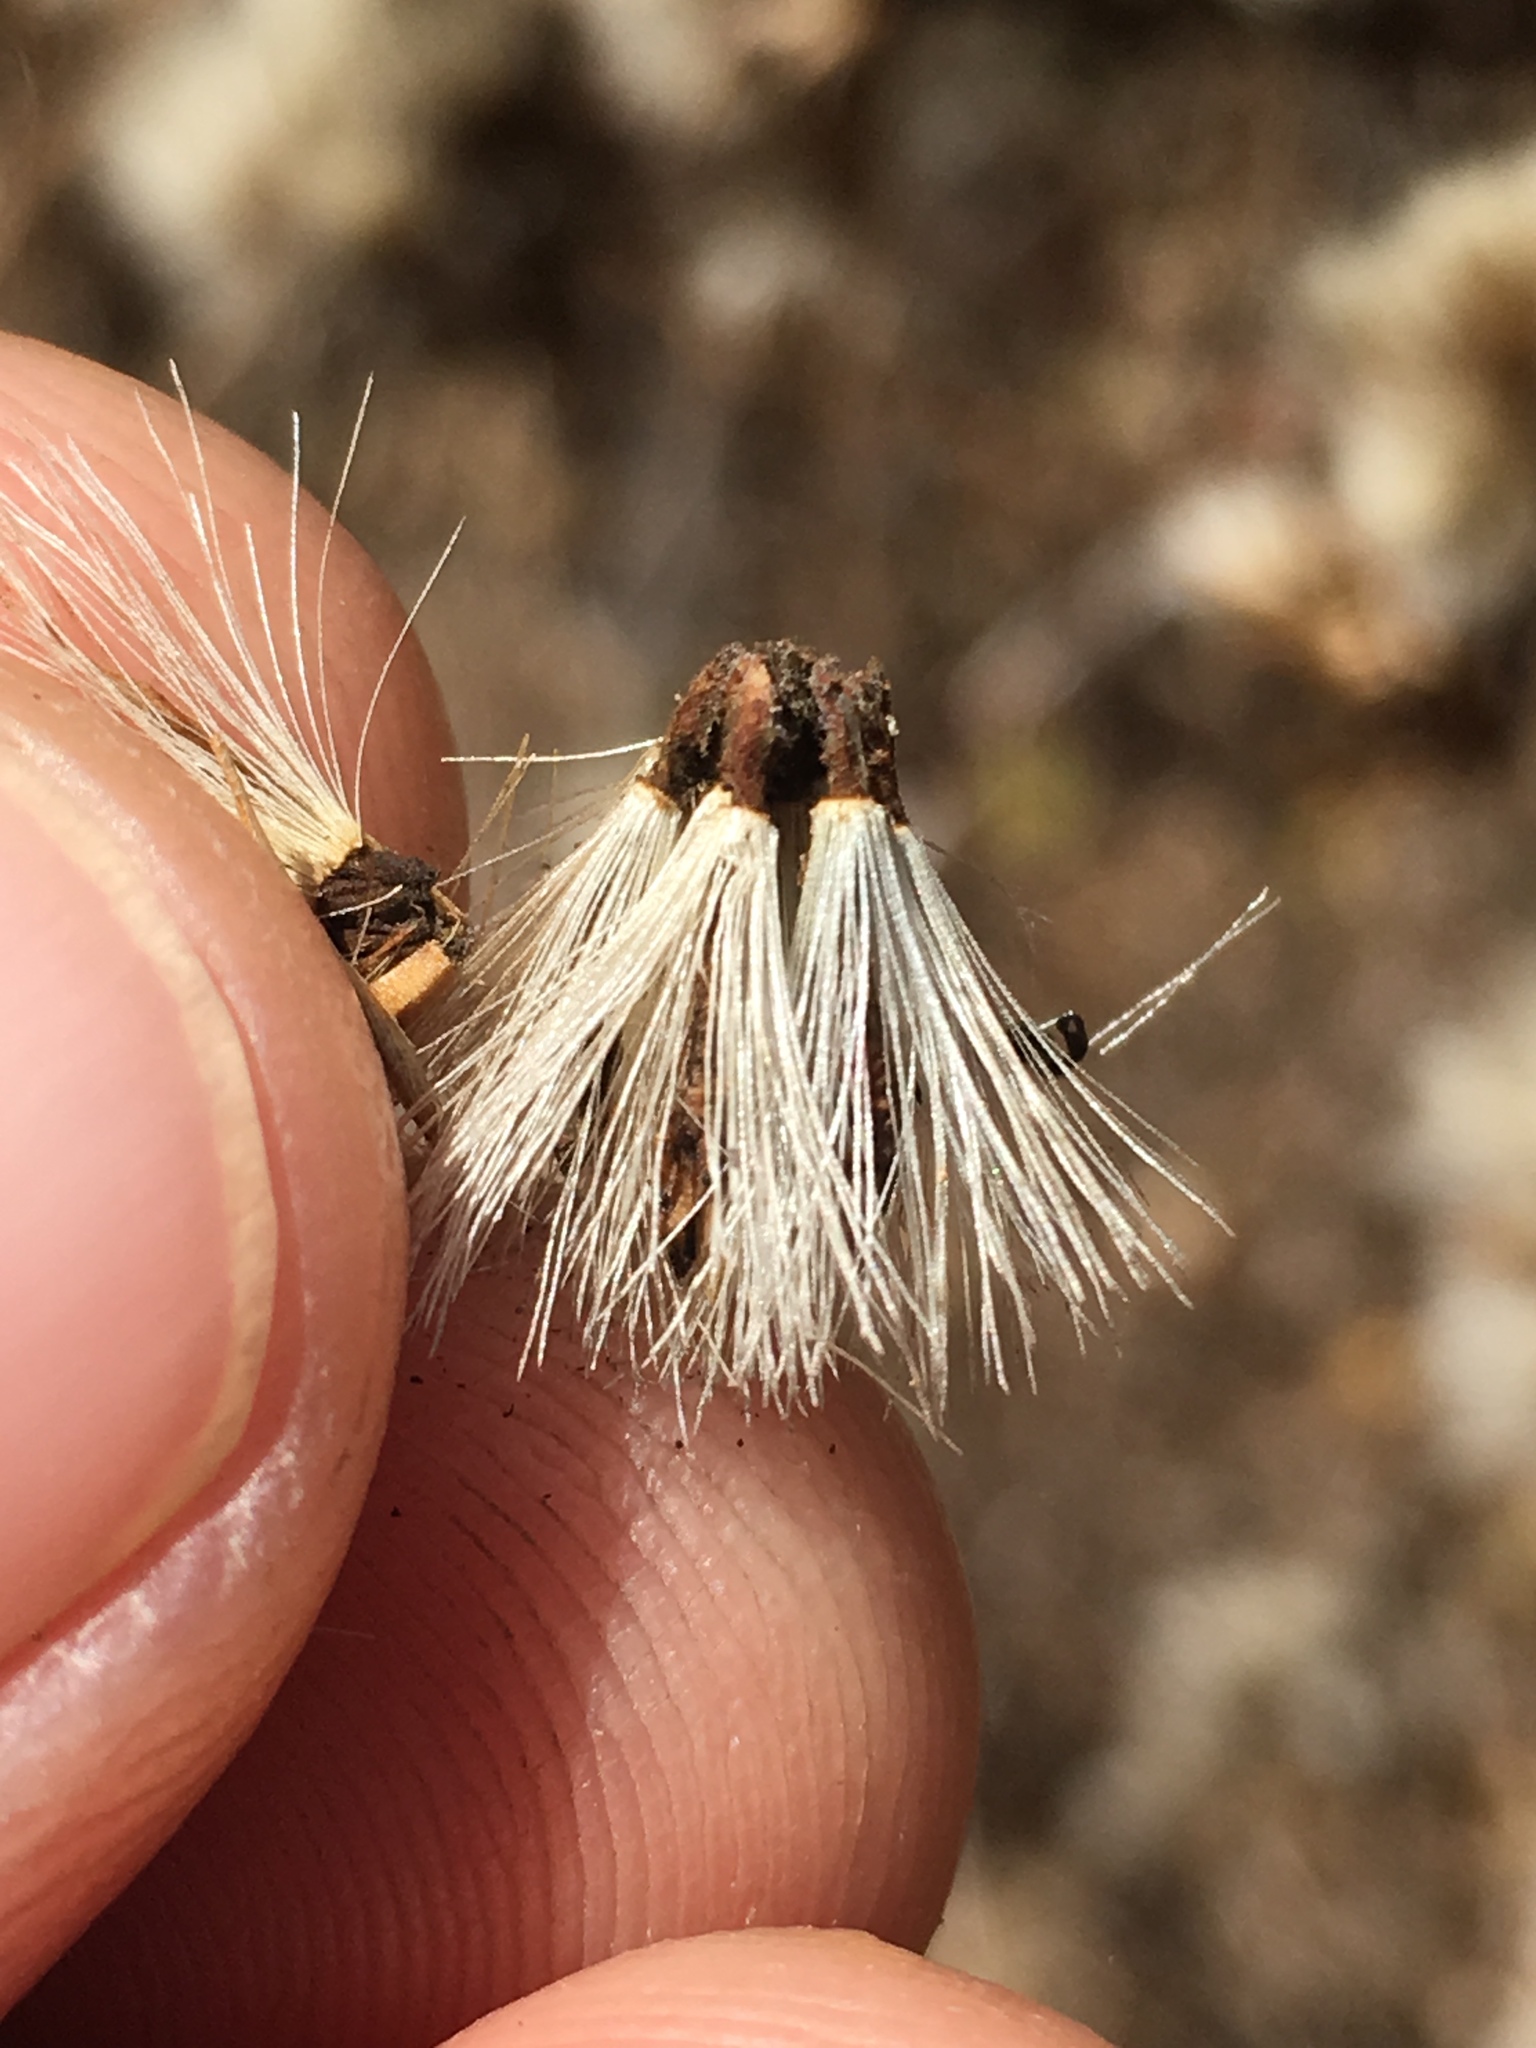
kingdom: Plantae
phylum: Tracheophyta
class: Magnoliopsida
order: Asterales
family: Asteraceae
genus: Acourtia
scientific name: Acourtia microcephala
